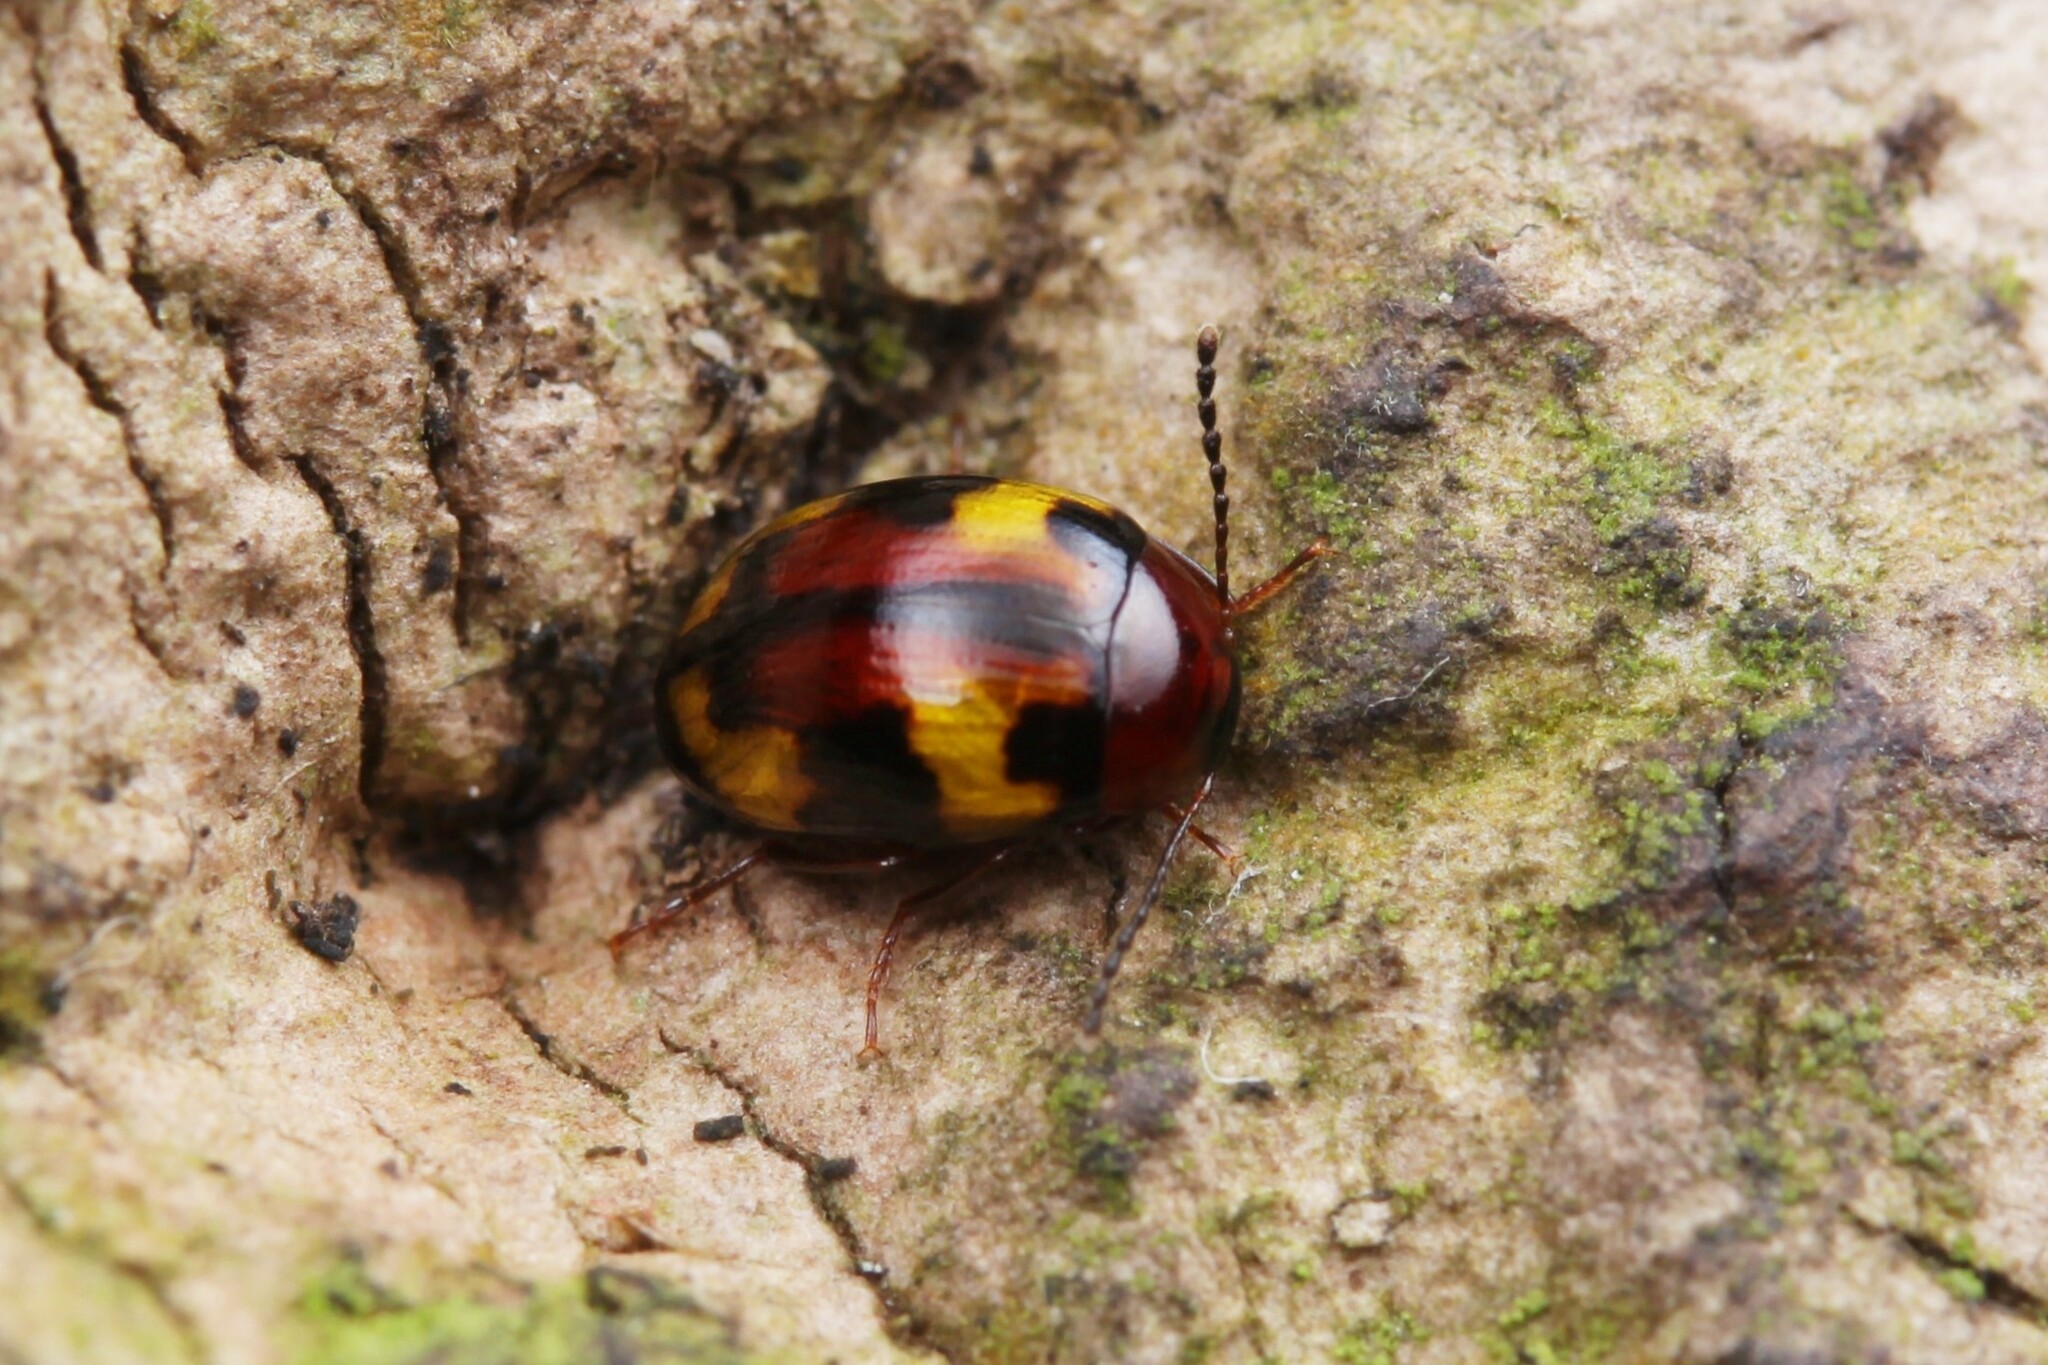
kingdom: Animalia
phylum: Arthropoda
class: Insecta
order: Coleoptera
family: Tenebrionidae
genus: Amarygmus
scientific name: Amarygmus
